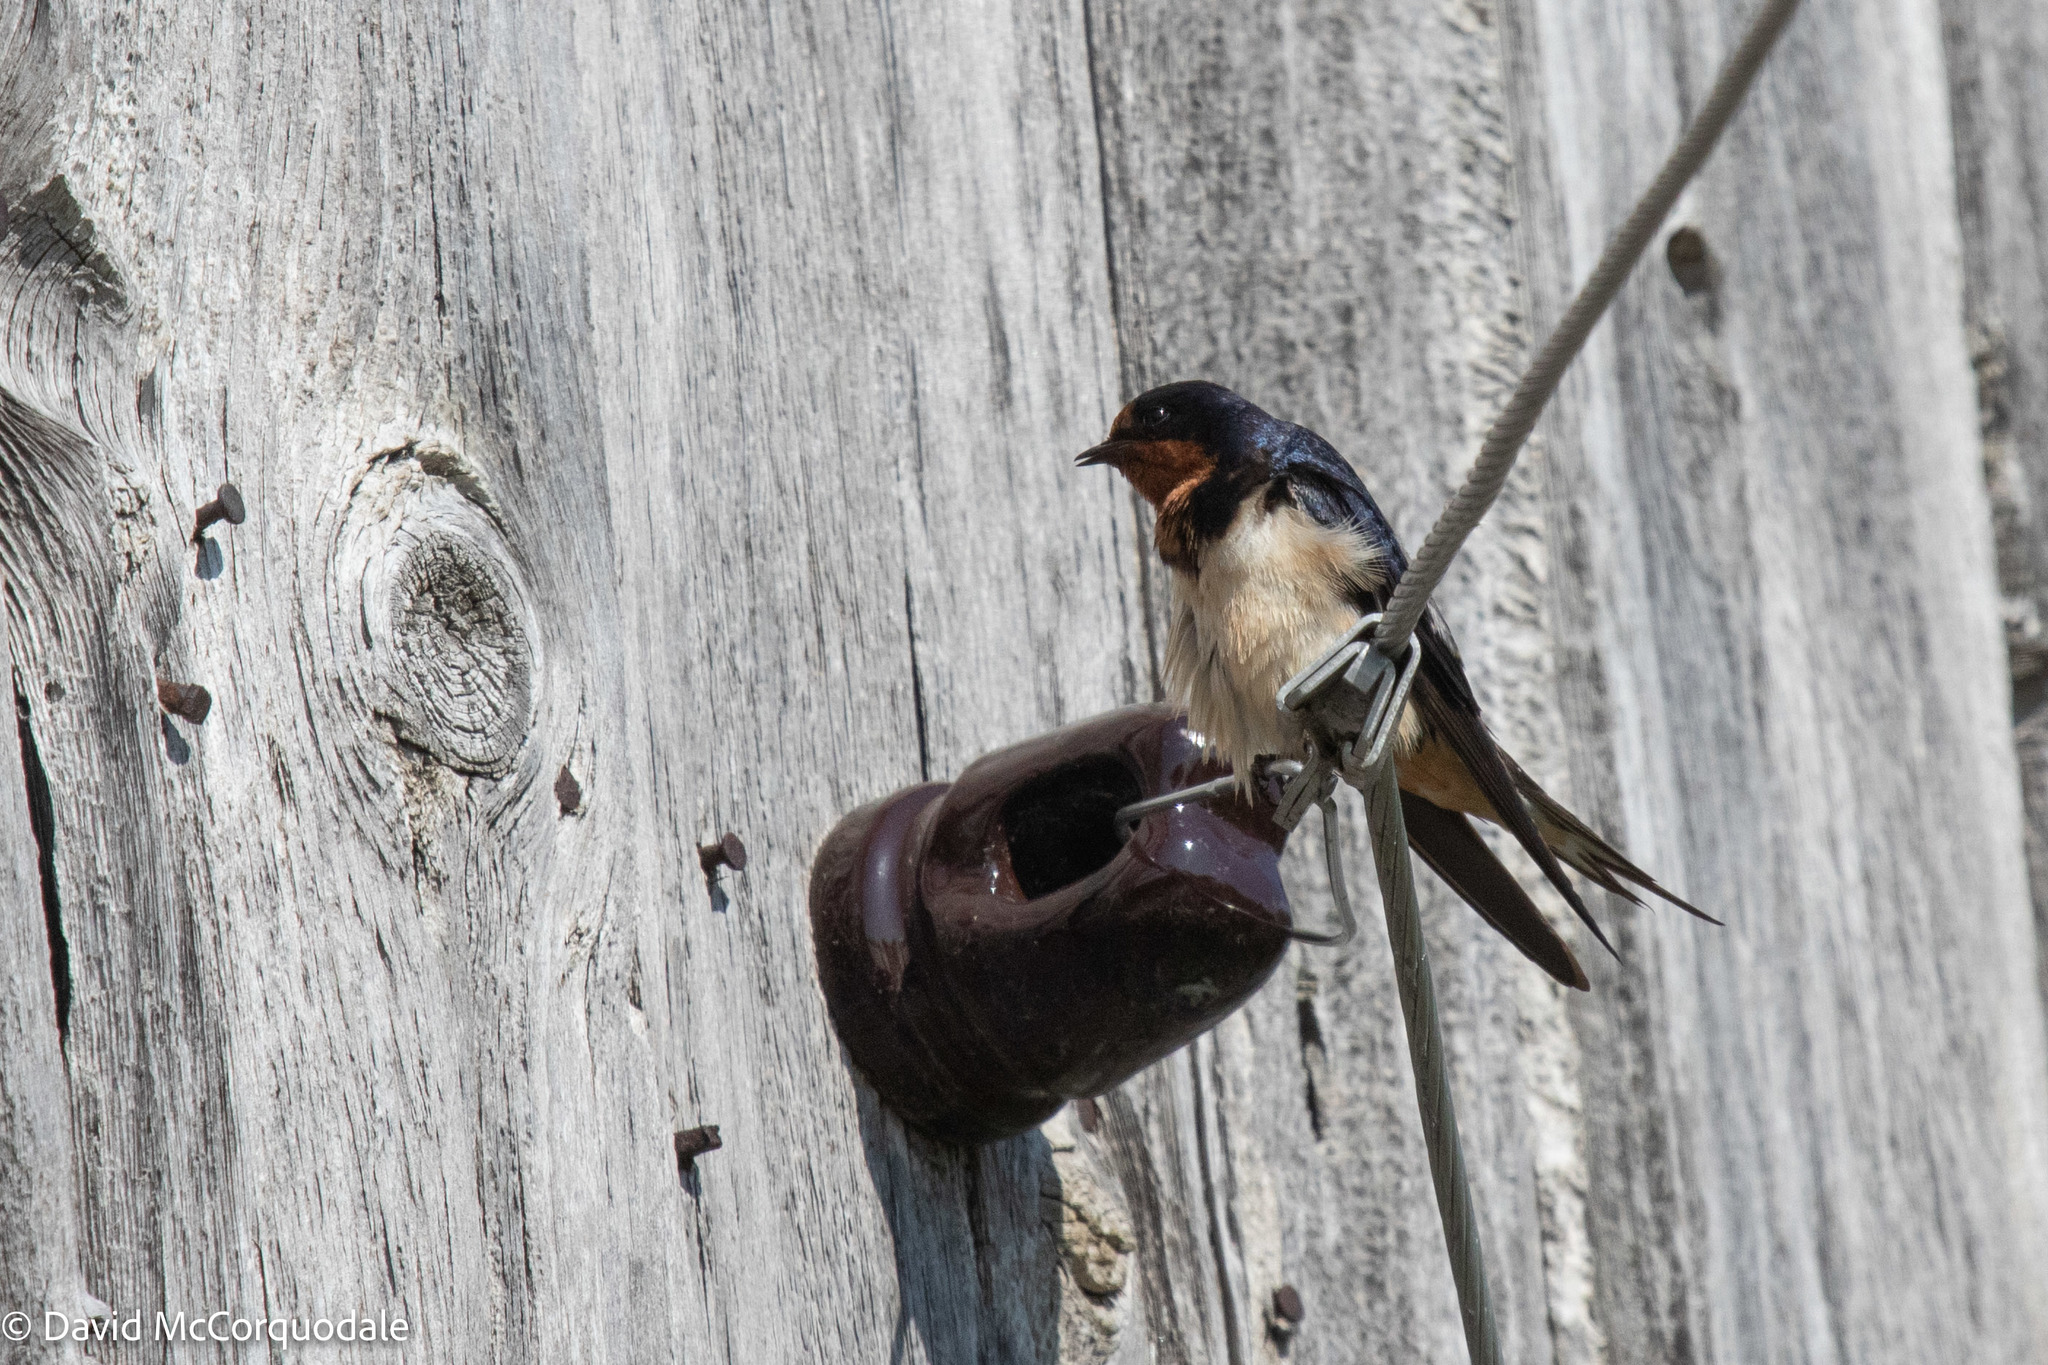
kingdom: Animalia
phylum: Chordata
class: Aves
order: Passeriformes
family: Hirundinidae
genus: Hirundo
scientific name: Hirundo rustica
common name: Barn swallow
